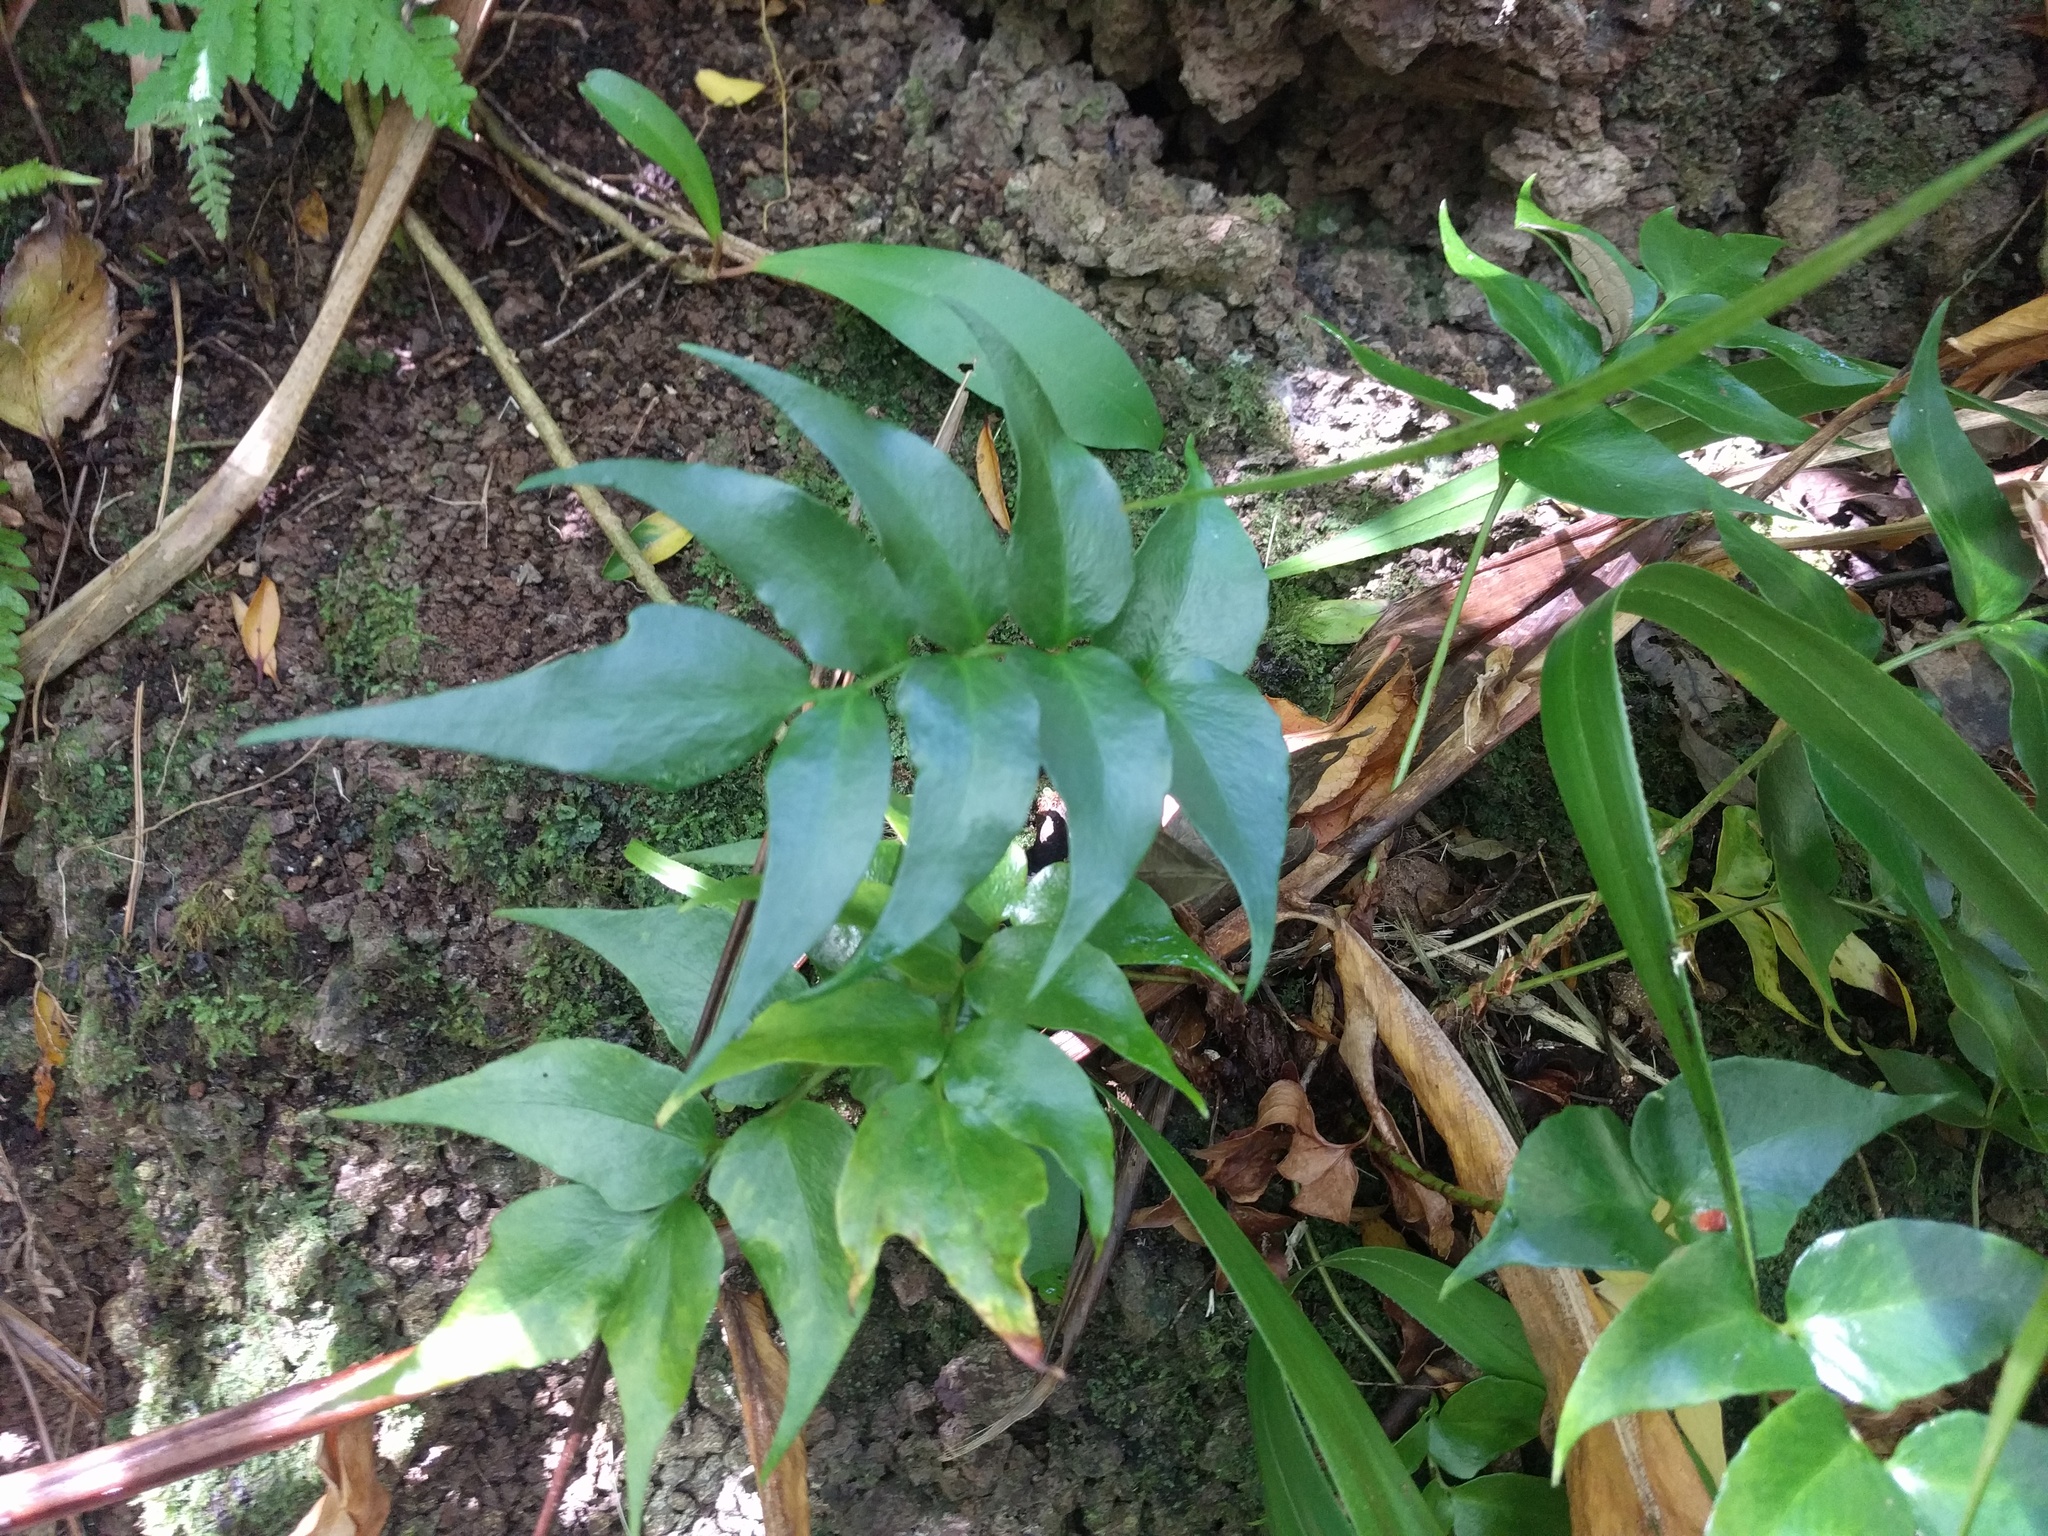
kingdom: Plantae
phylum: Tracheophyta
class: Polypodiopsida
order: Polypodiales
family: Dryopteridaceae
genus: Cyrtomium
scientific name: Cyrtomium falcatum
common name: House holly-fern
